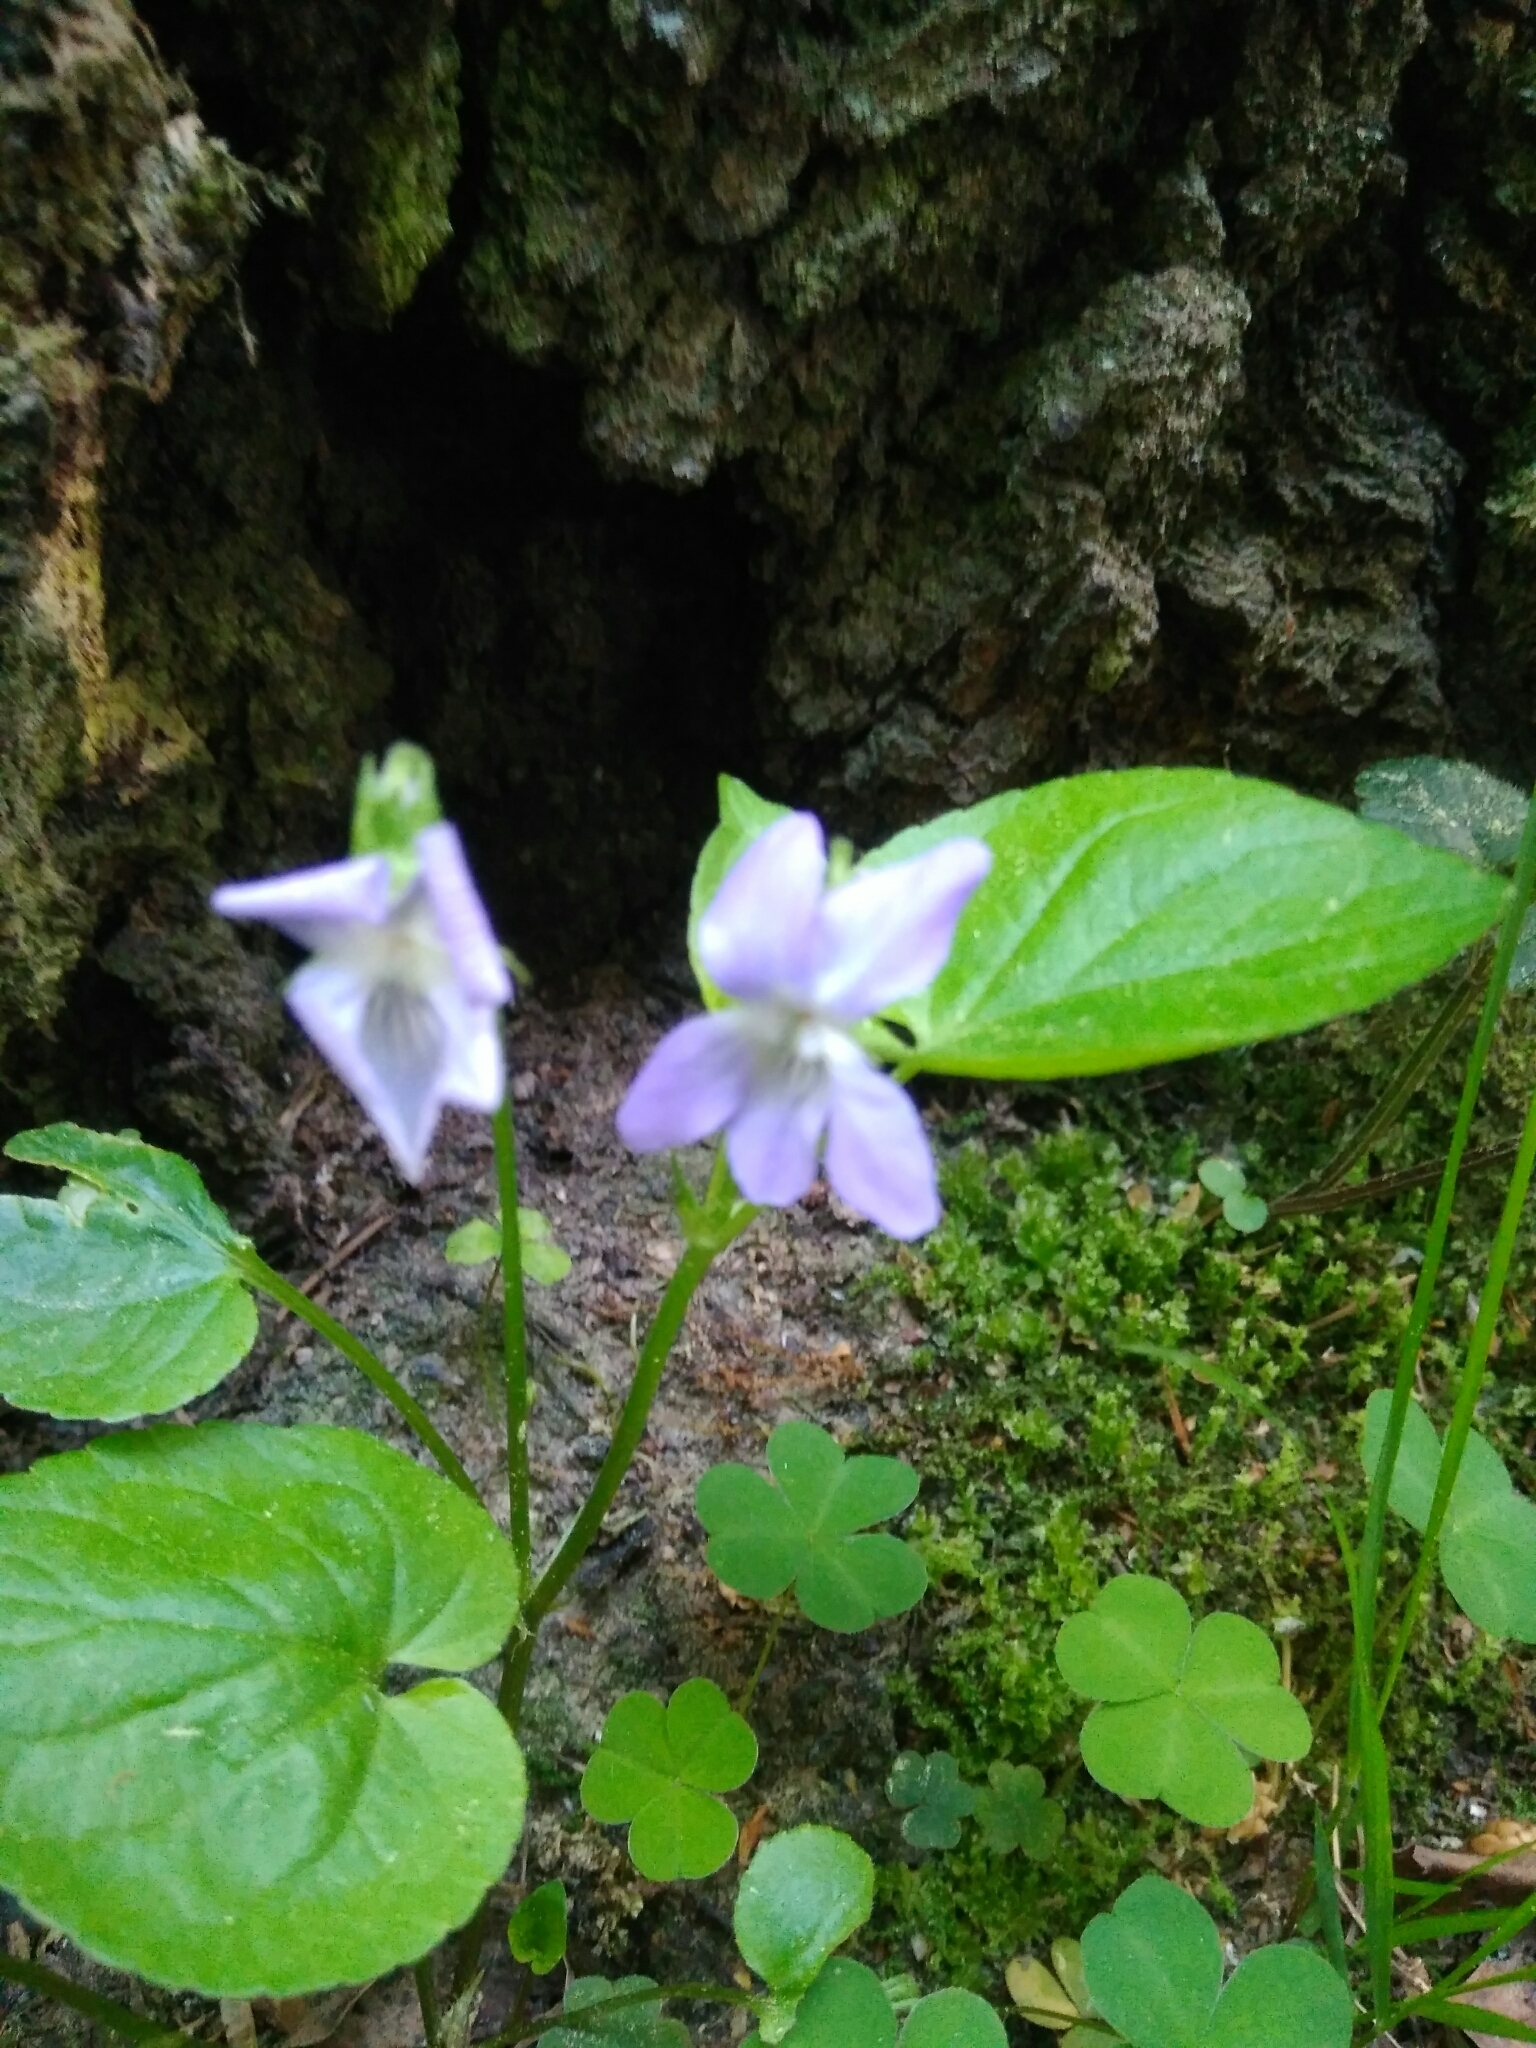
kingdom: Plantae
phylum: Tracheophyta
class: Magnoliopsida
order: Malpighiales
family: Violaceae
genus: Viola
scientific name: Viola riviniana
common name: Common dog-violet
